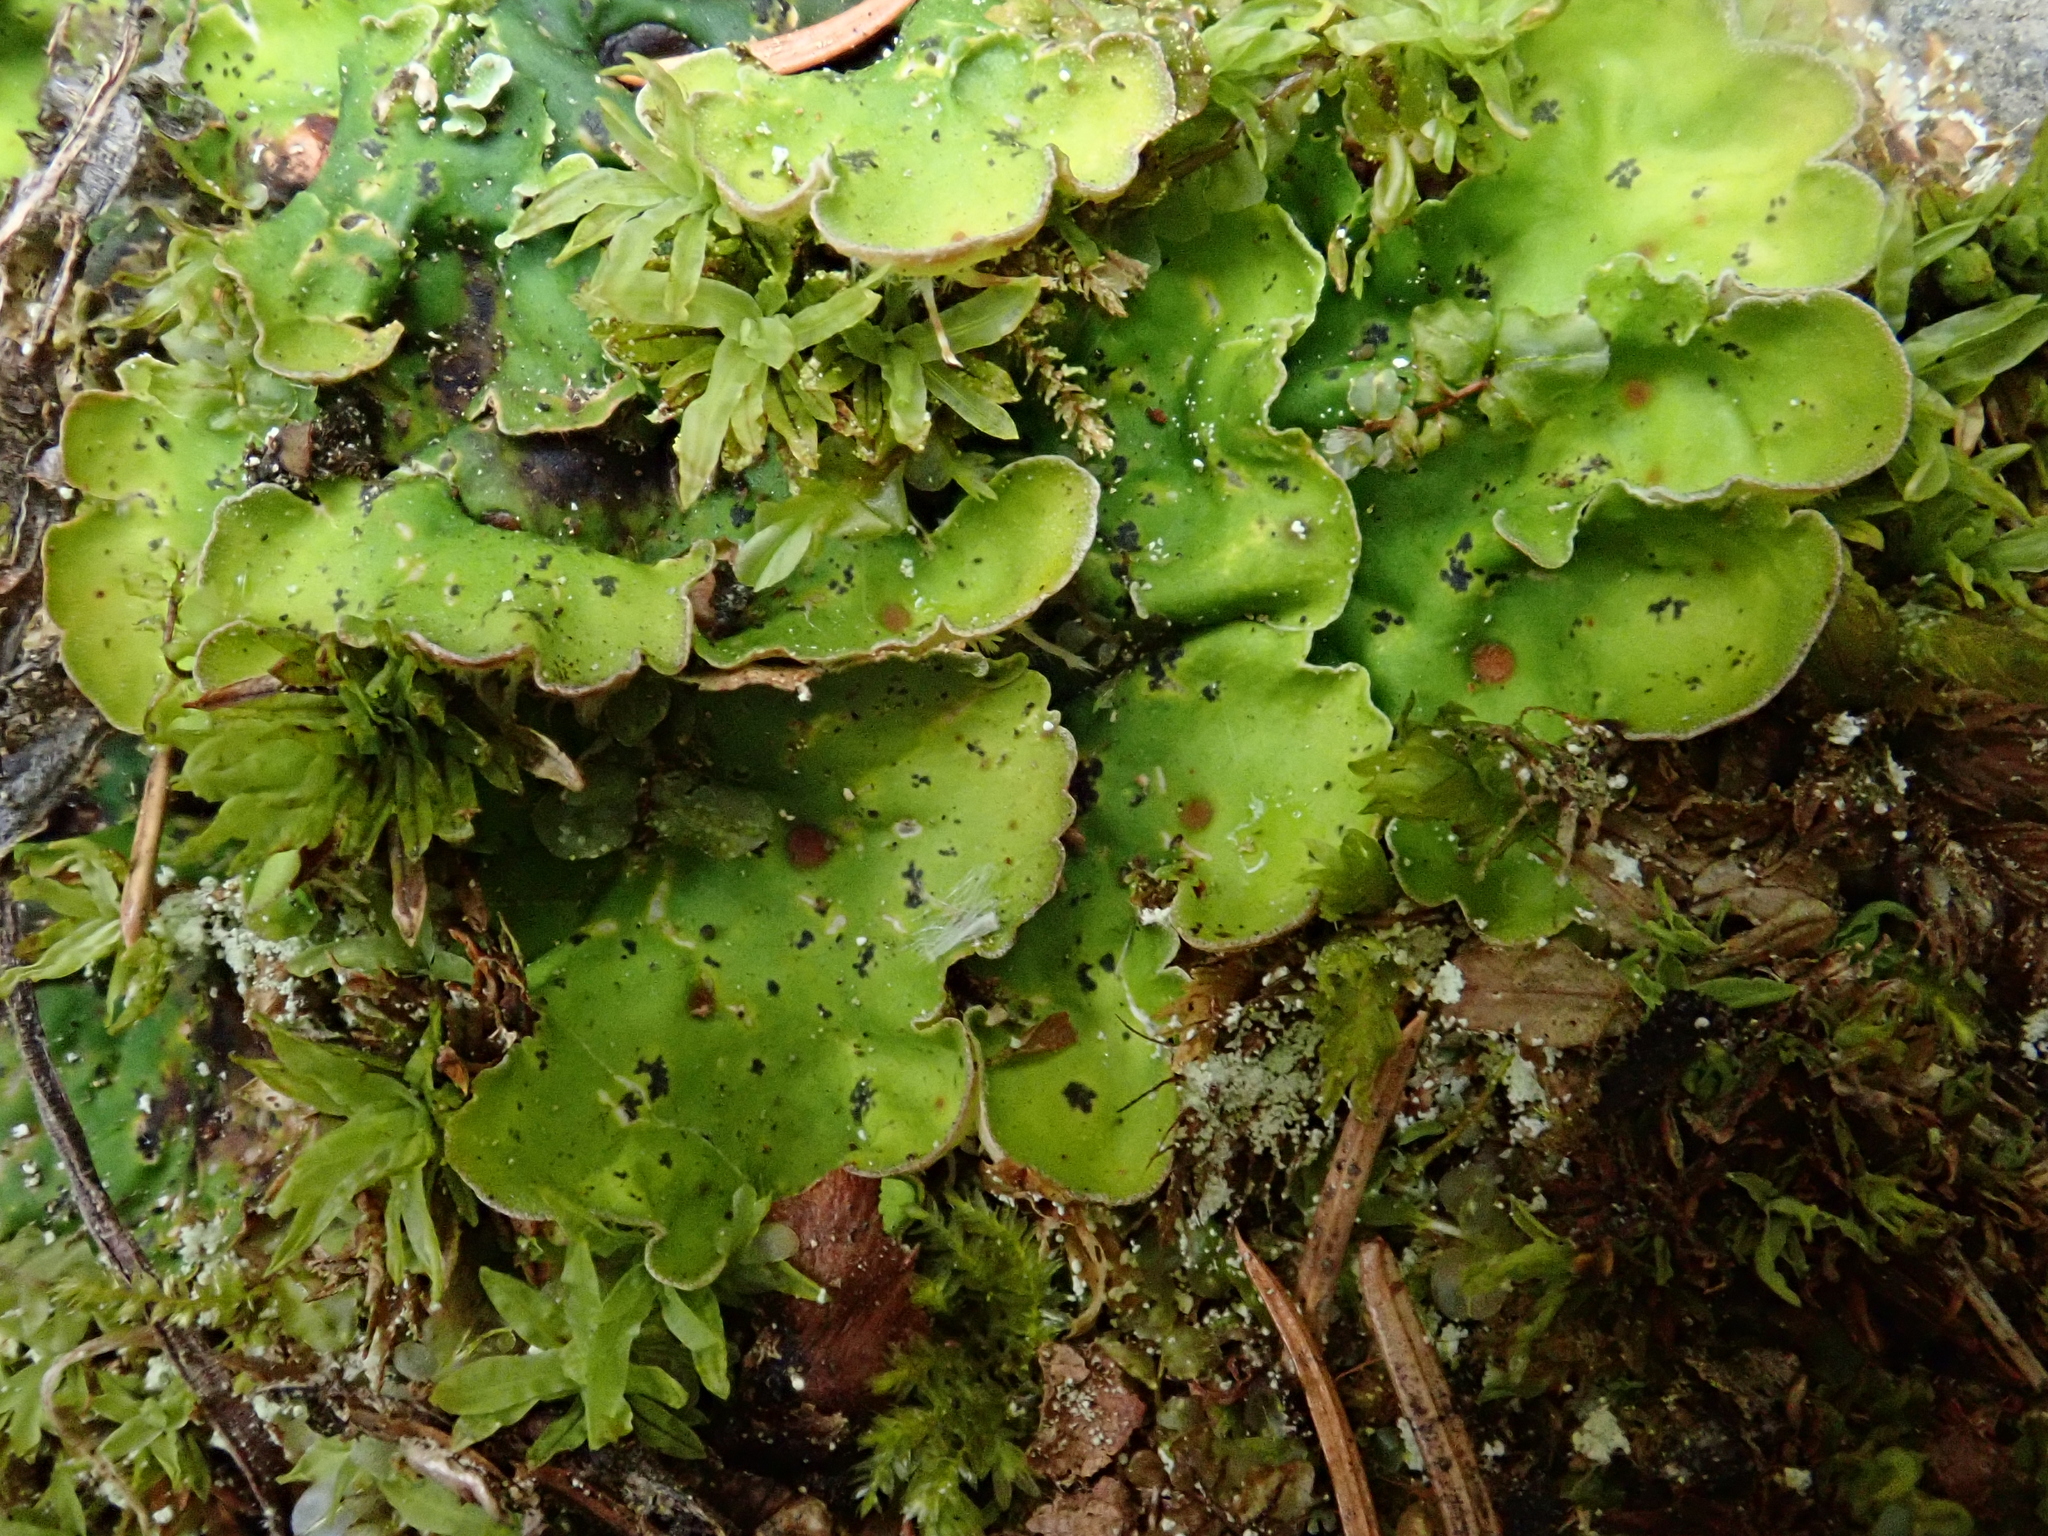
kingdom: Fungi
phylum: Ascomycota
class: Lecanoromycetes
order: Peltigerales
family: Peltigeraceae
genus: Solorina
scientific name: Solorina saccata
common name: Common chocolate chip lichen
